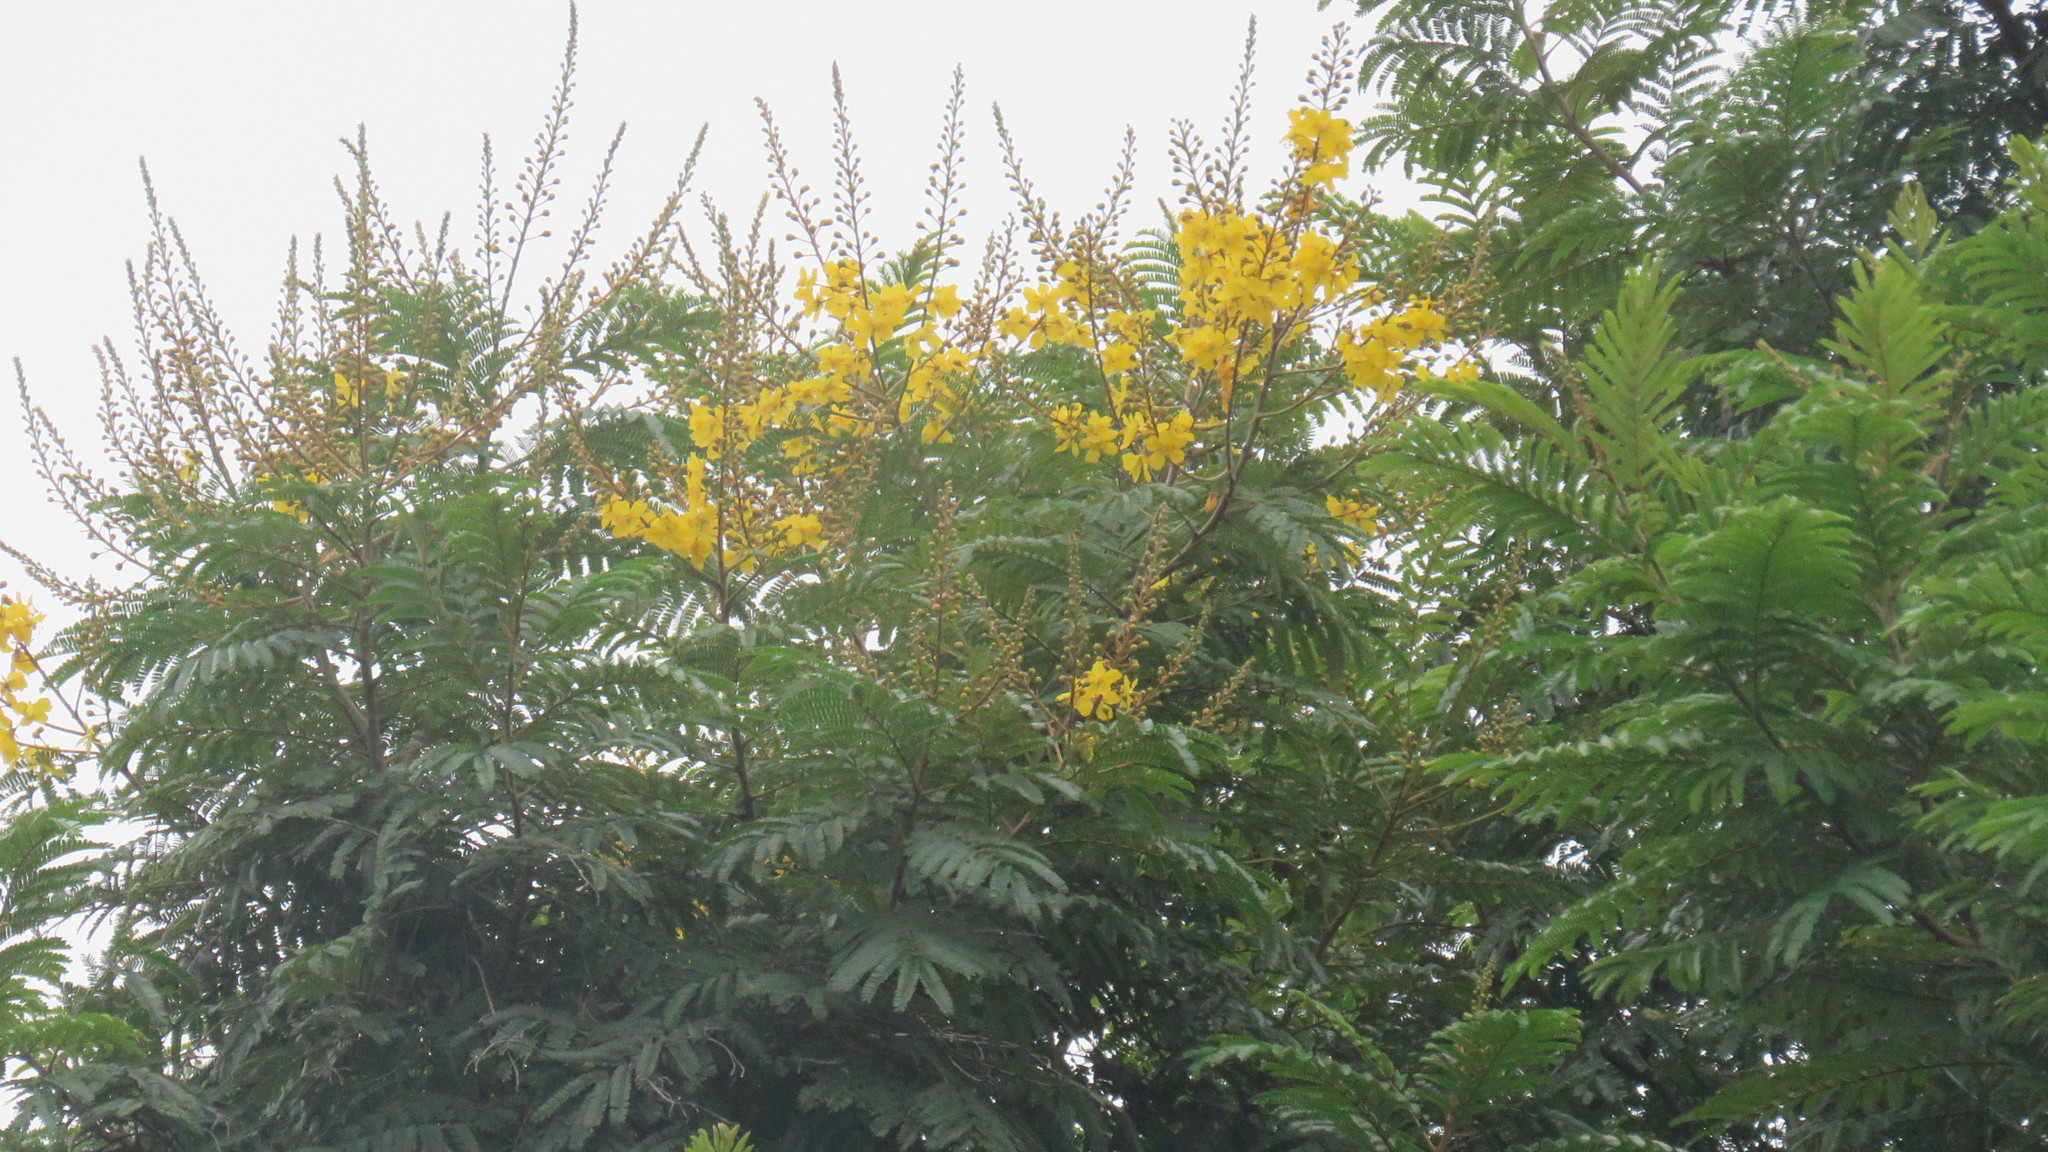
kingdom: Plantae
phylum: Tracheophyta
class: Magnoliopsida
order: Fabales
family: Fabaceae
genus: Peltophorum
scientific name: Peltophorum dubium
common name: Horsebush
